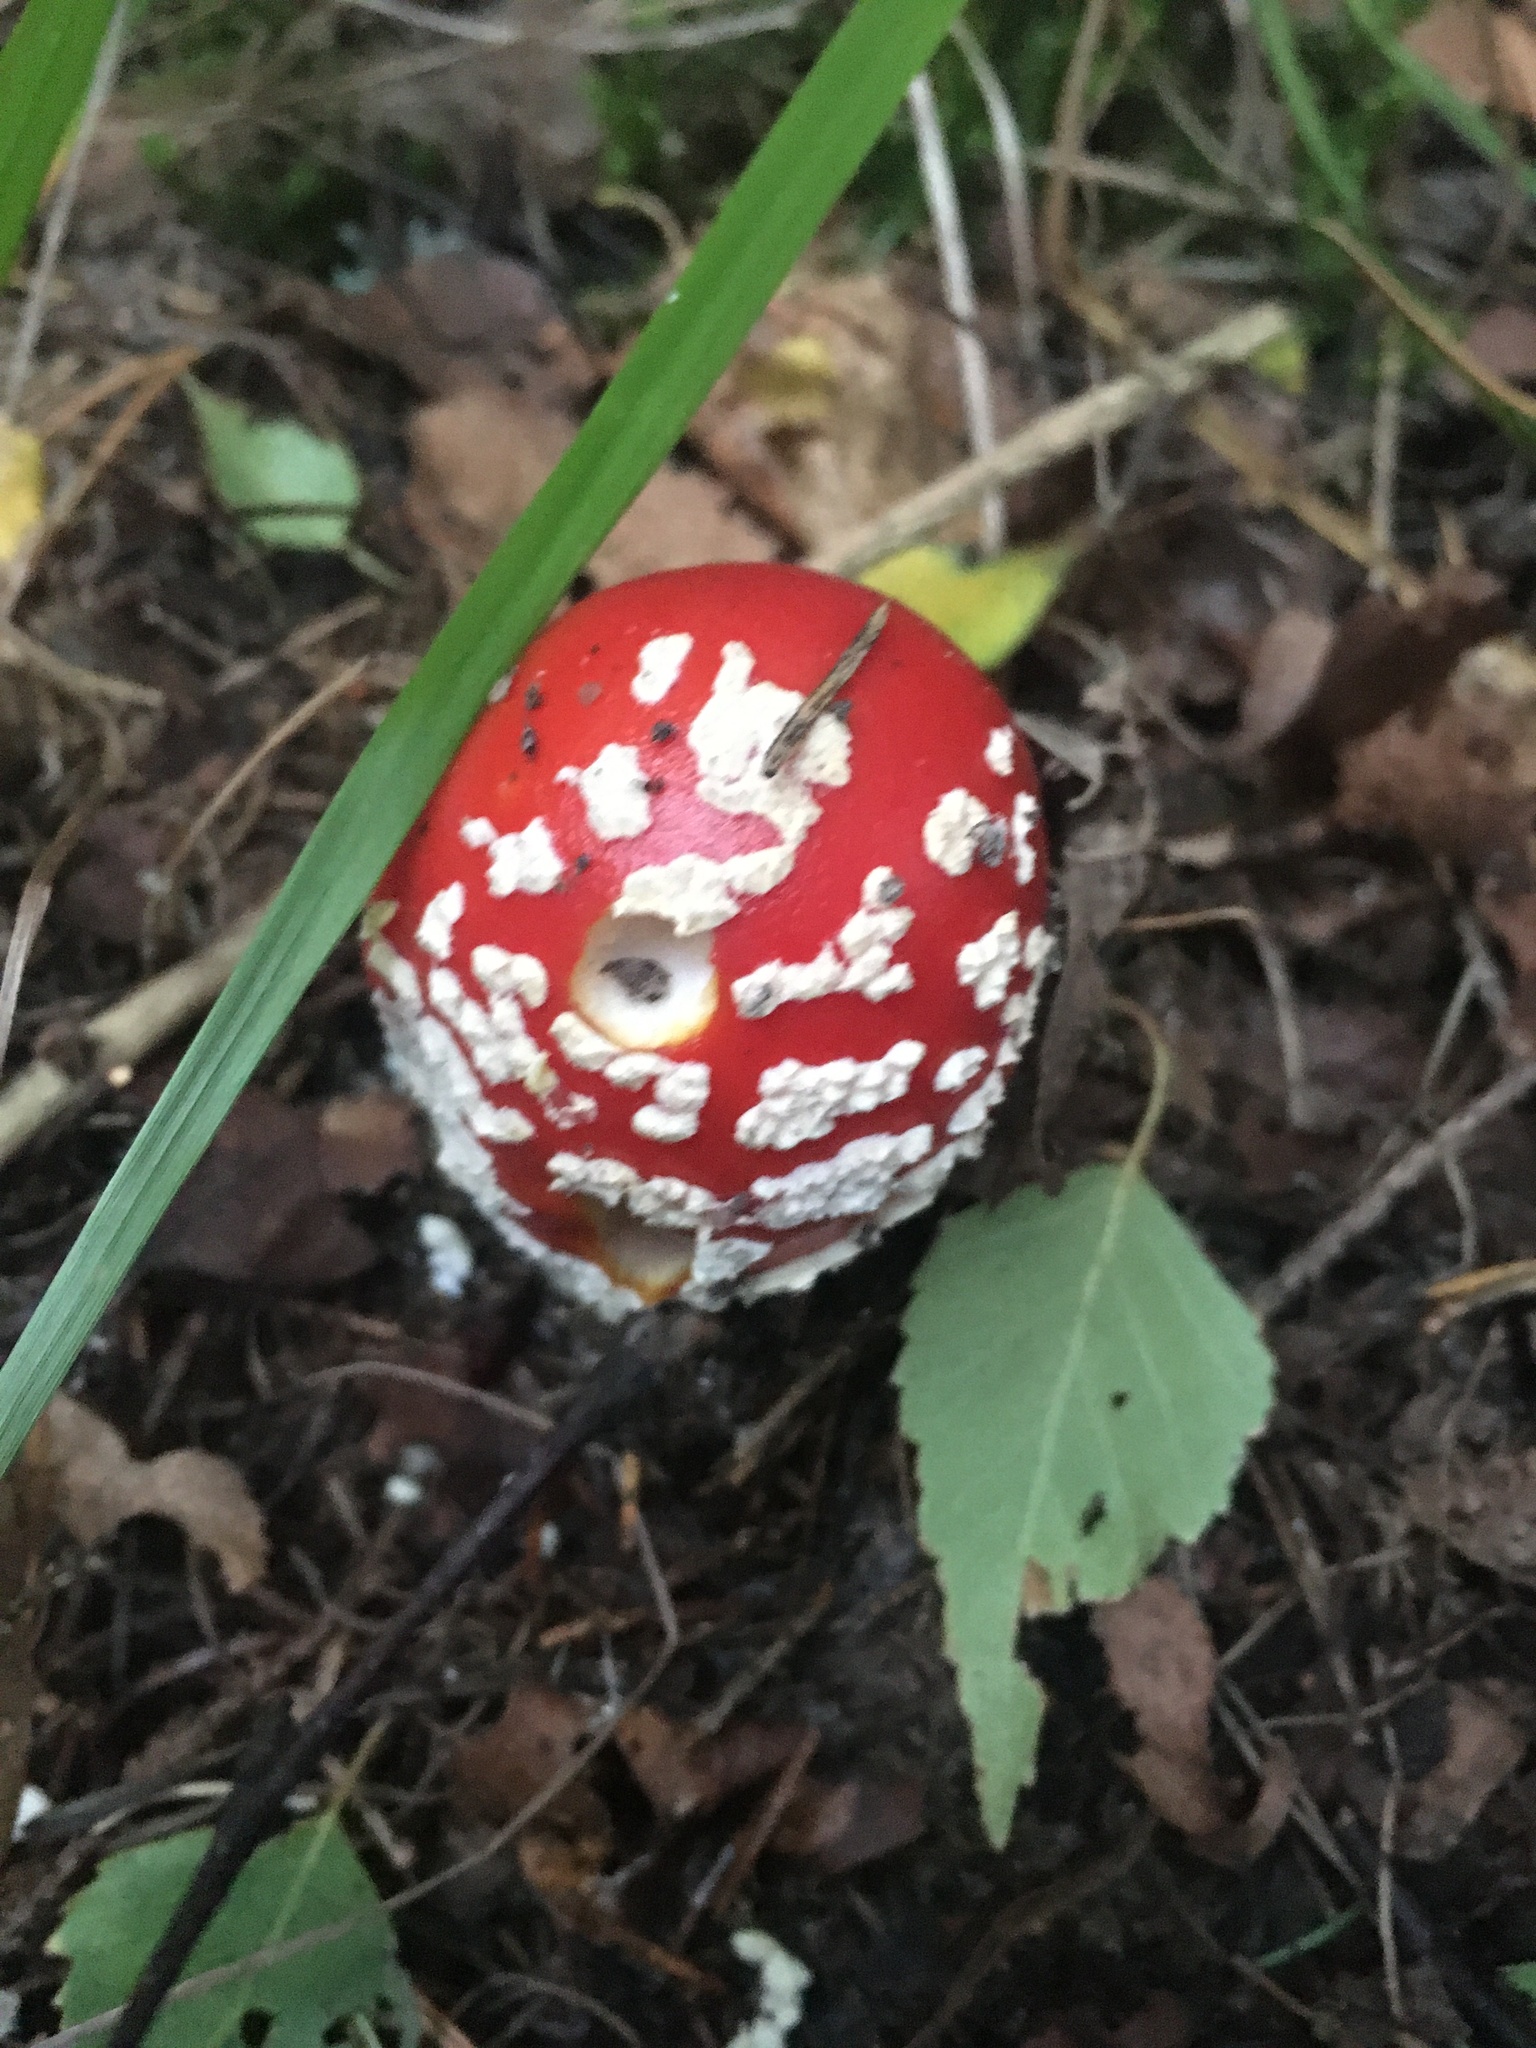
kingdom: Fungi
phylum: Basidiomycota
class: Agaricomycetes
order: Agaricales
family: Amanitaceae
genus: Amanita
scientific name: Amanita muscaria
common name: Fly agaric
